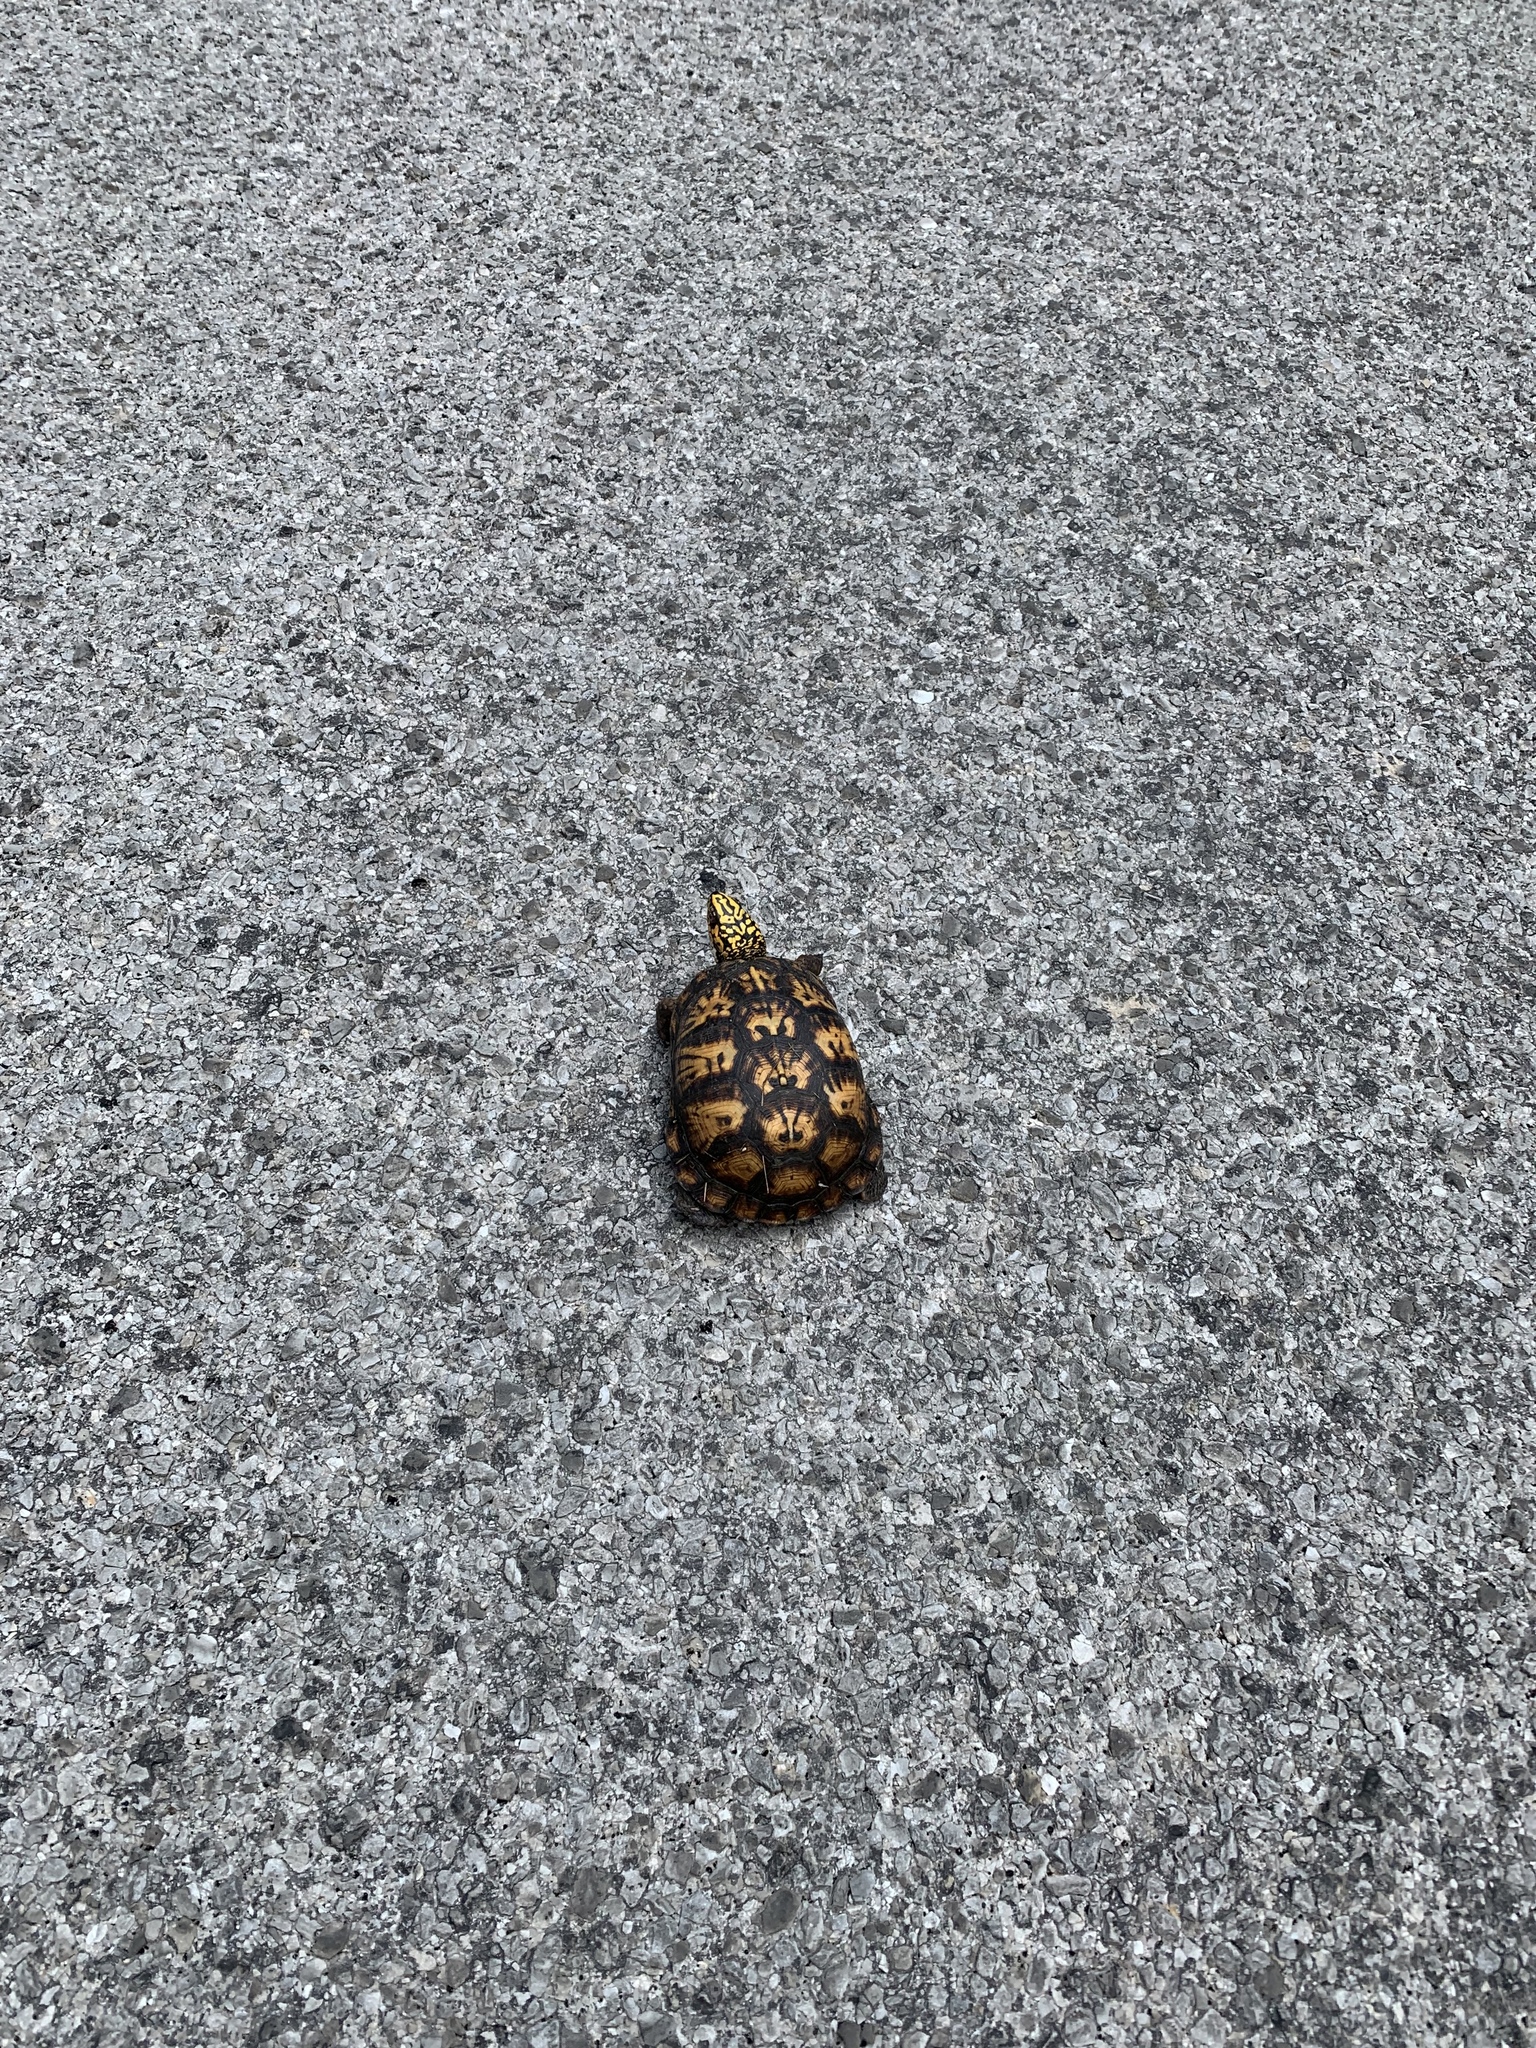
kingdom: Animalia
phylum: Chordata
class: Testudines
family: Emydidae
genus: Terrapene
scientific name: Terrapene carolina
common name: Common box turtle
